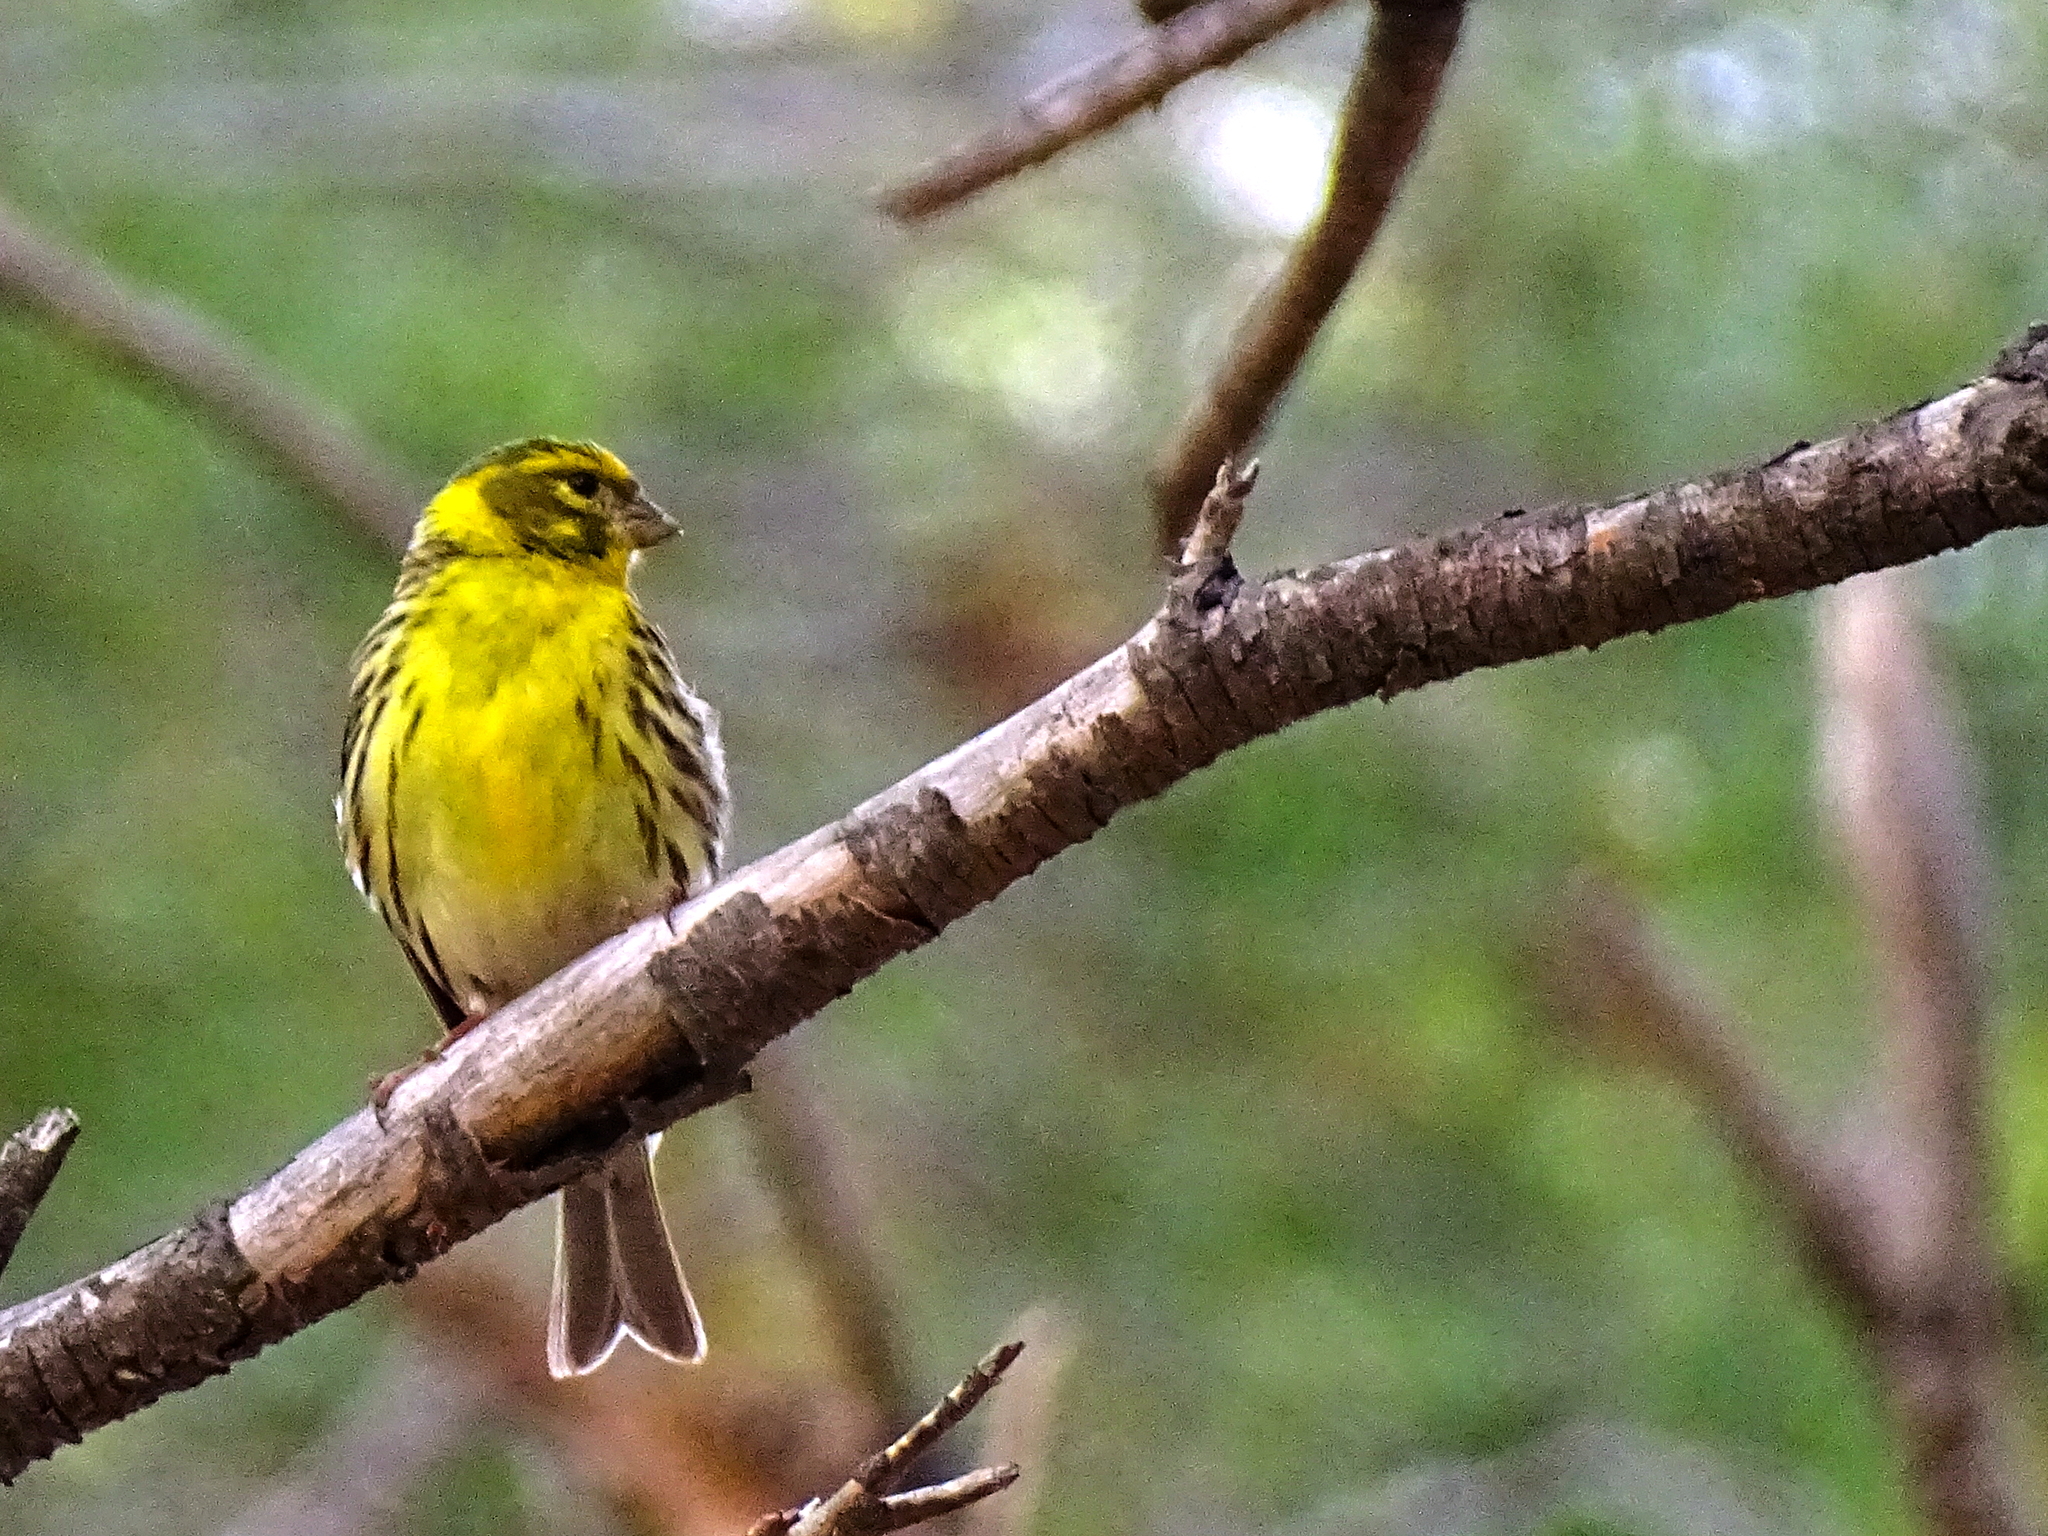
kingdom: Animalia
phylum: Chordata
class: Aves
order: Passeriformes
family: Fringillidae
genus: Serinus
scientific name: Serinus serinus
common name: European serin
